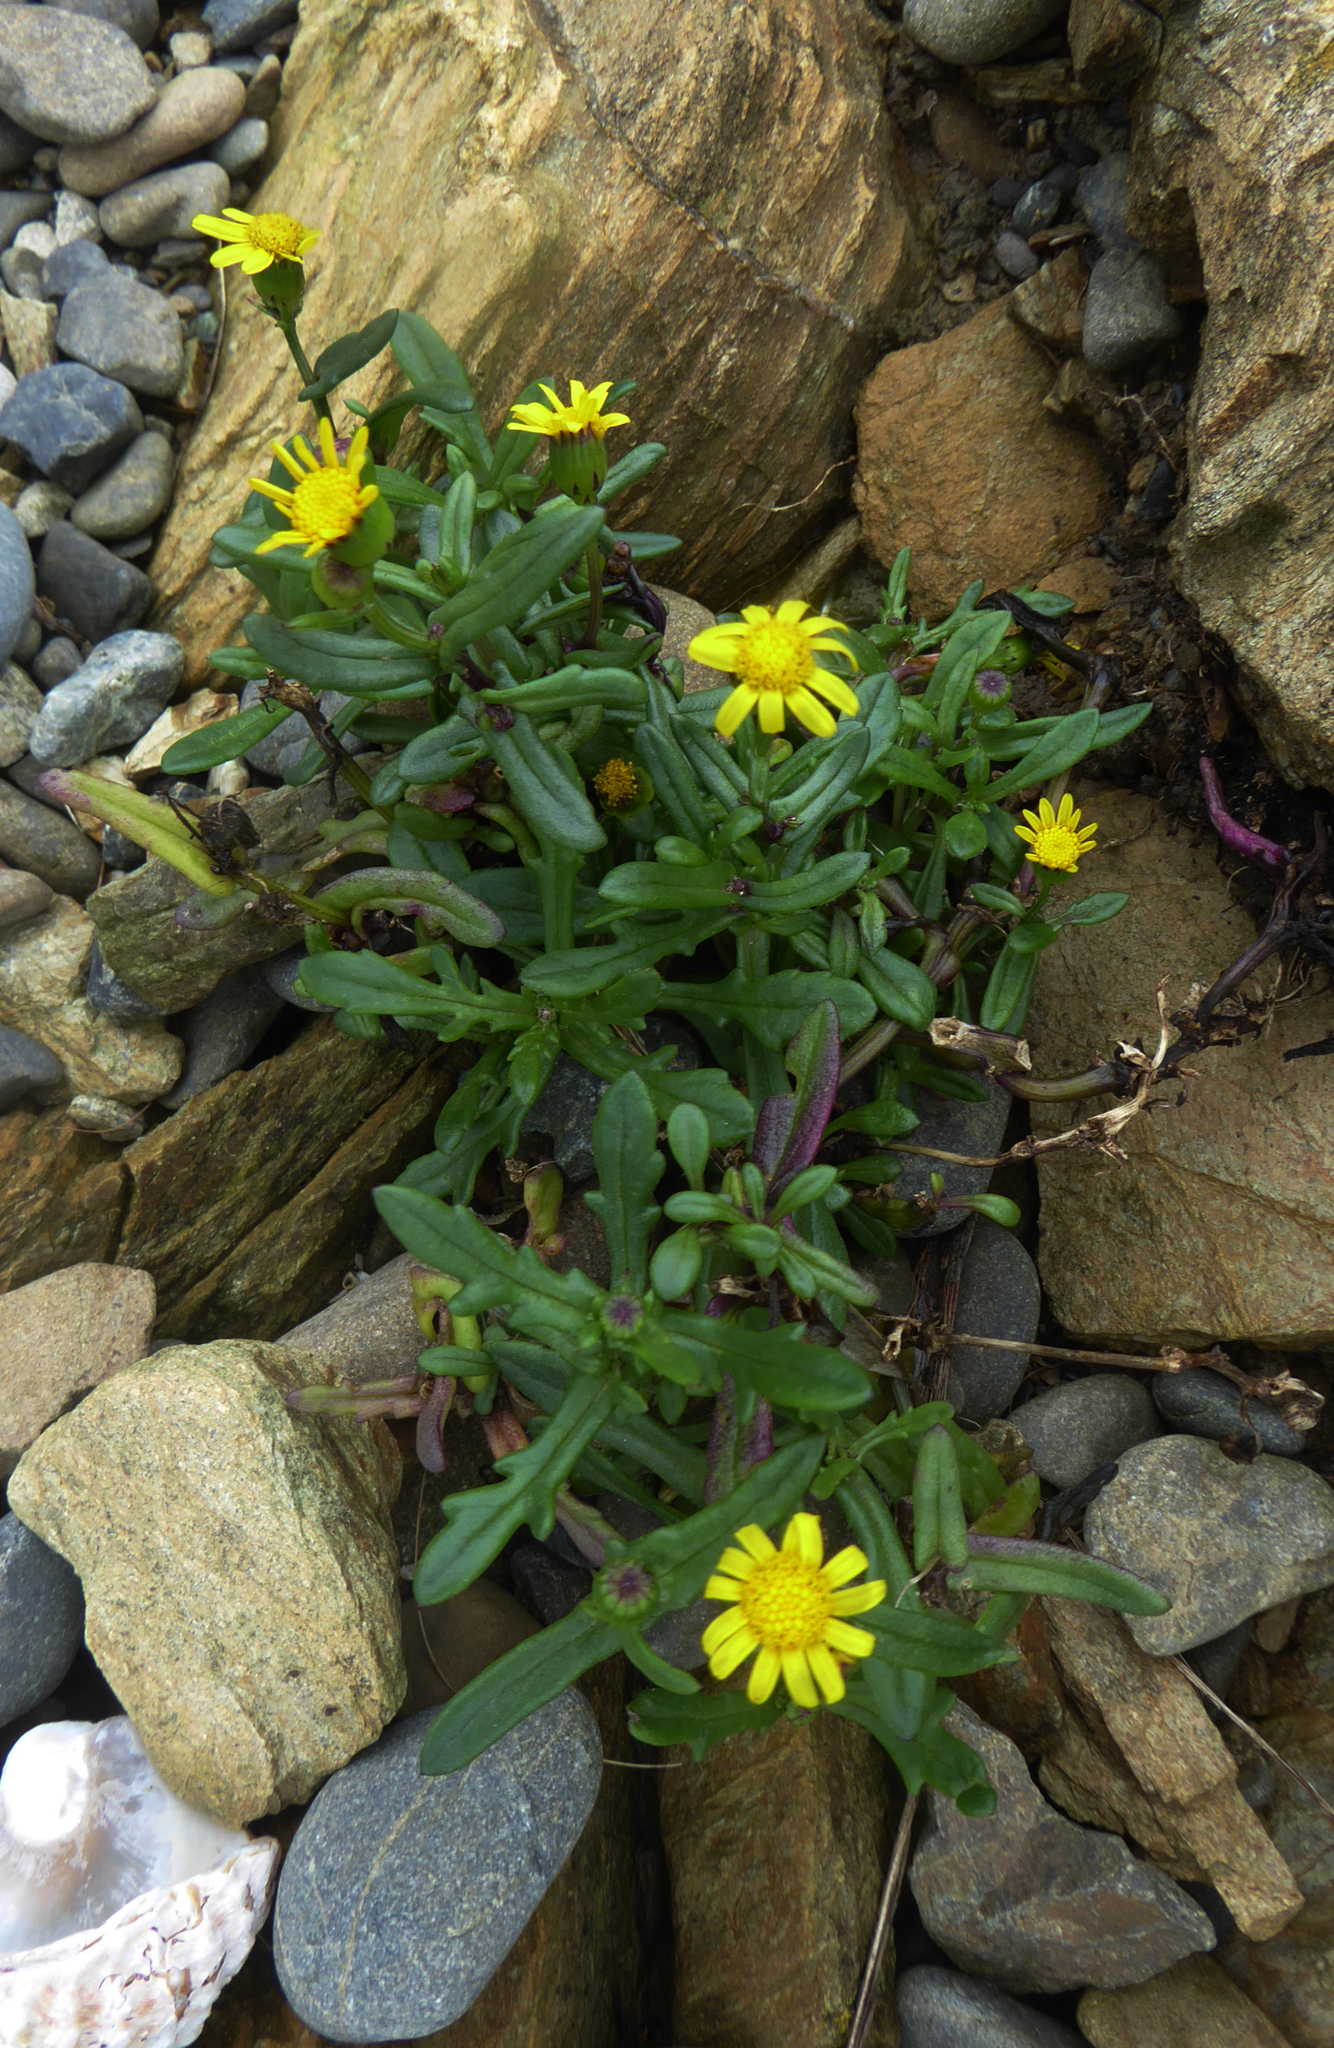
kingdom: Plantae
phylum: Tracheophyta
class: Magnoliopsida
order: Asterales
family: Asteraceae
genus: Senecio
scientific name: Senecio lautus
